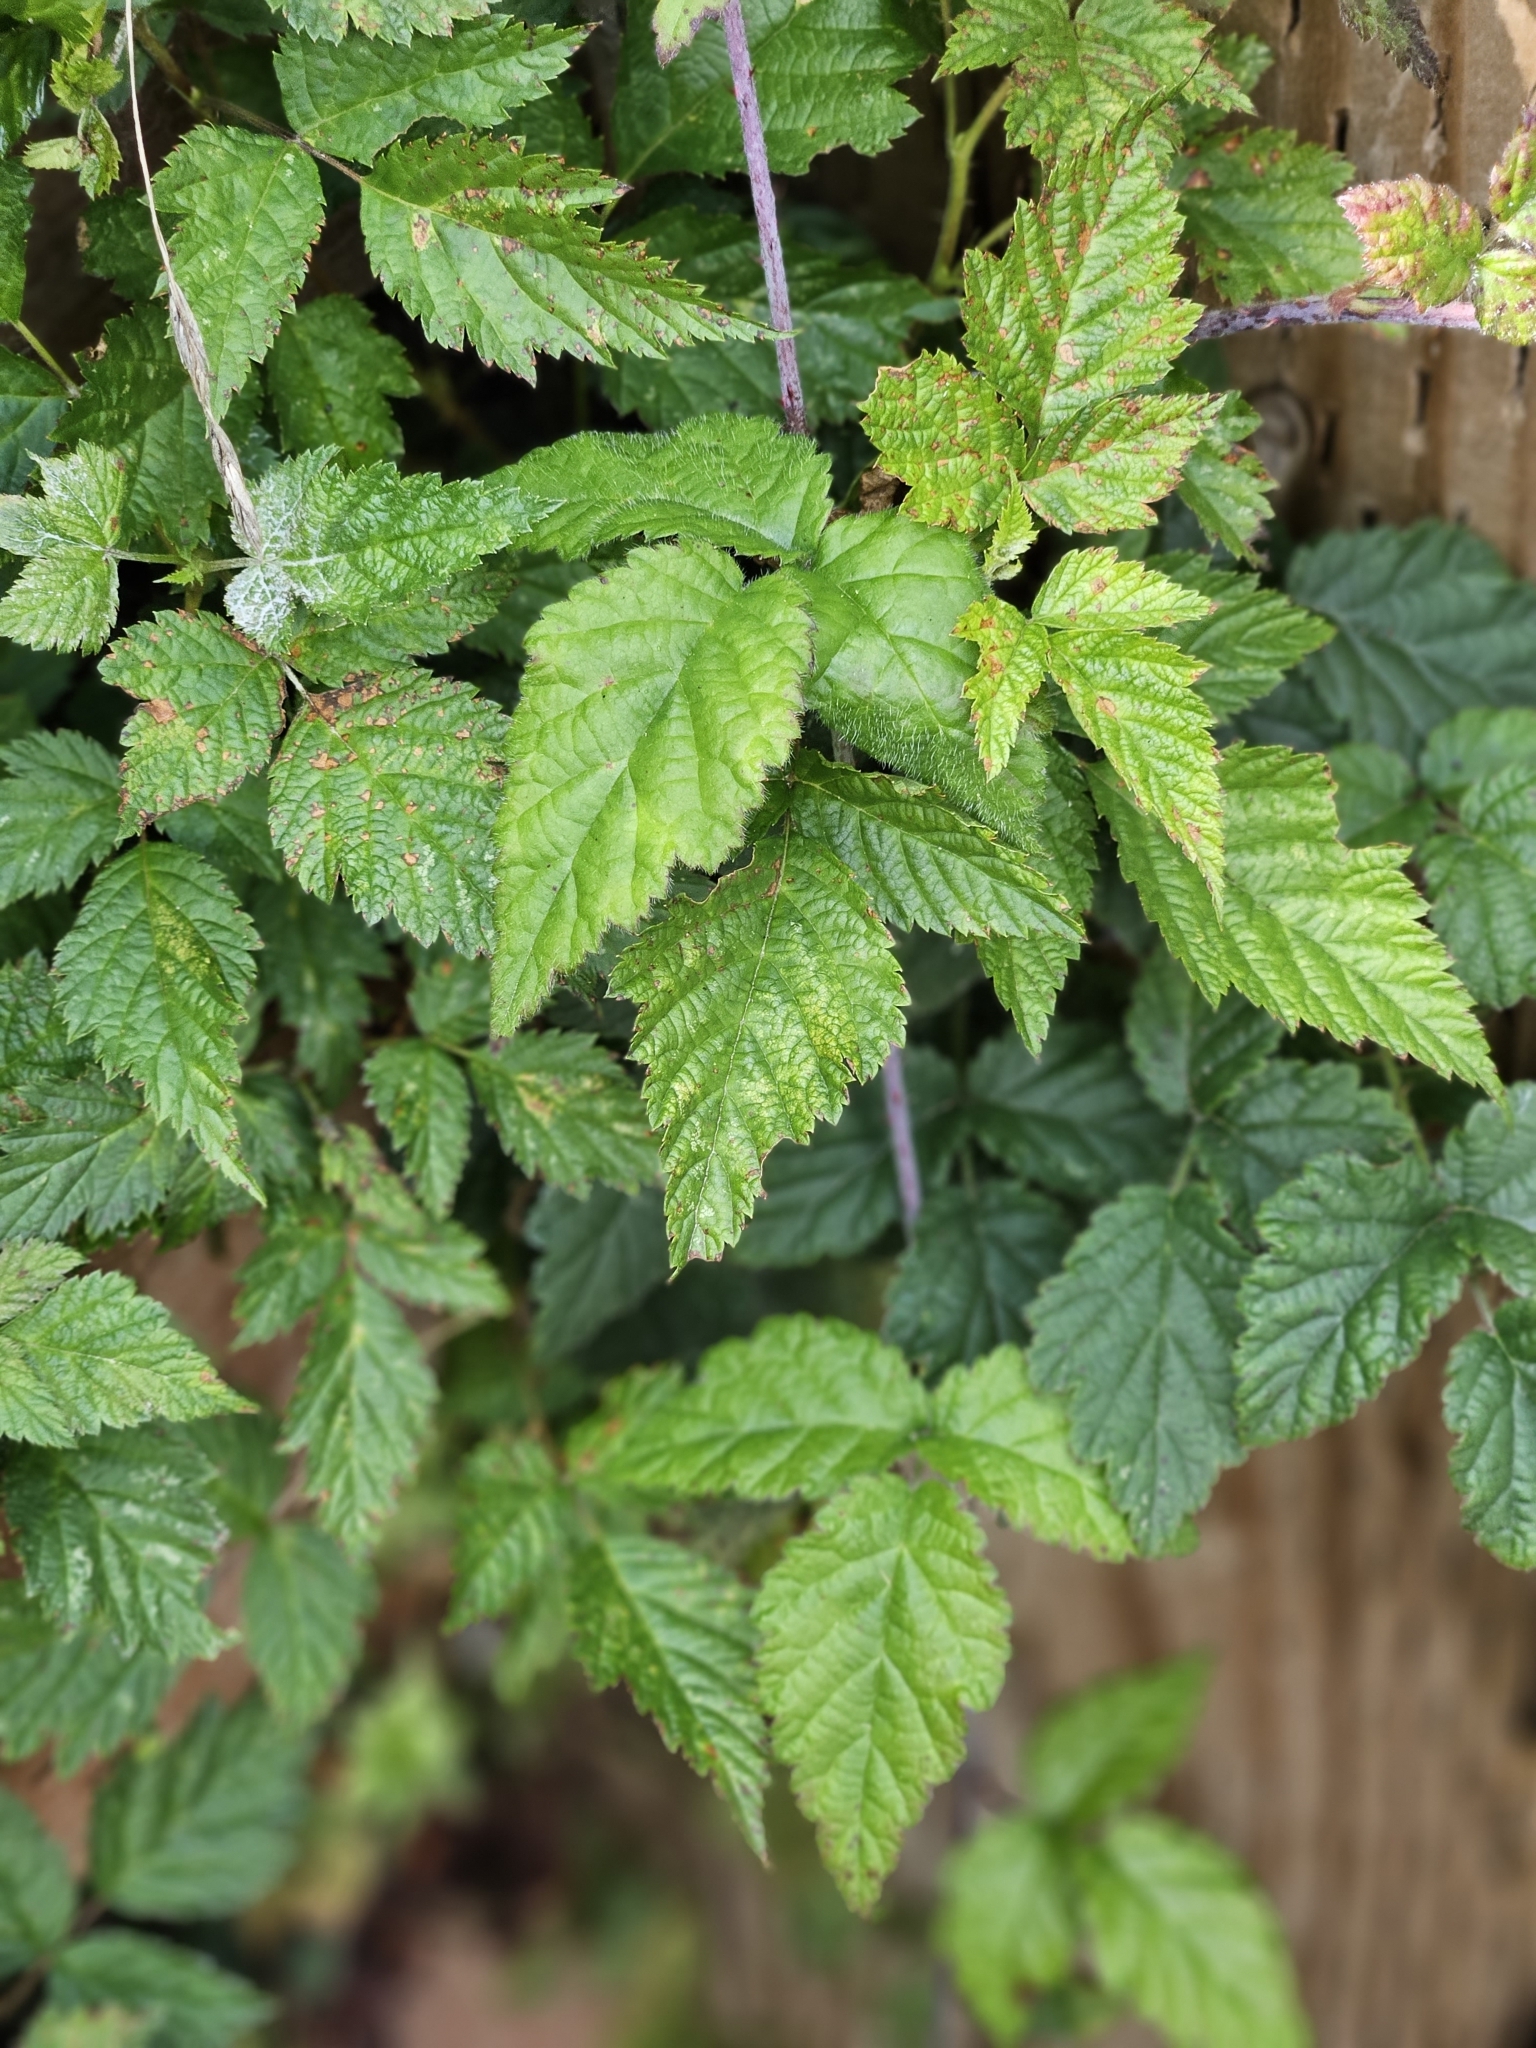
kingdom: Plantae
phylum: Tracheophyta
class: Magnoliopsida
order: Rosales
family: Rosaceae
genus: Rubus
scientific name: Rubus ursinus
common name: Pacific blackberry
